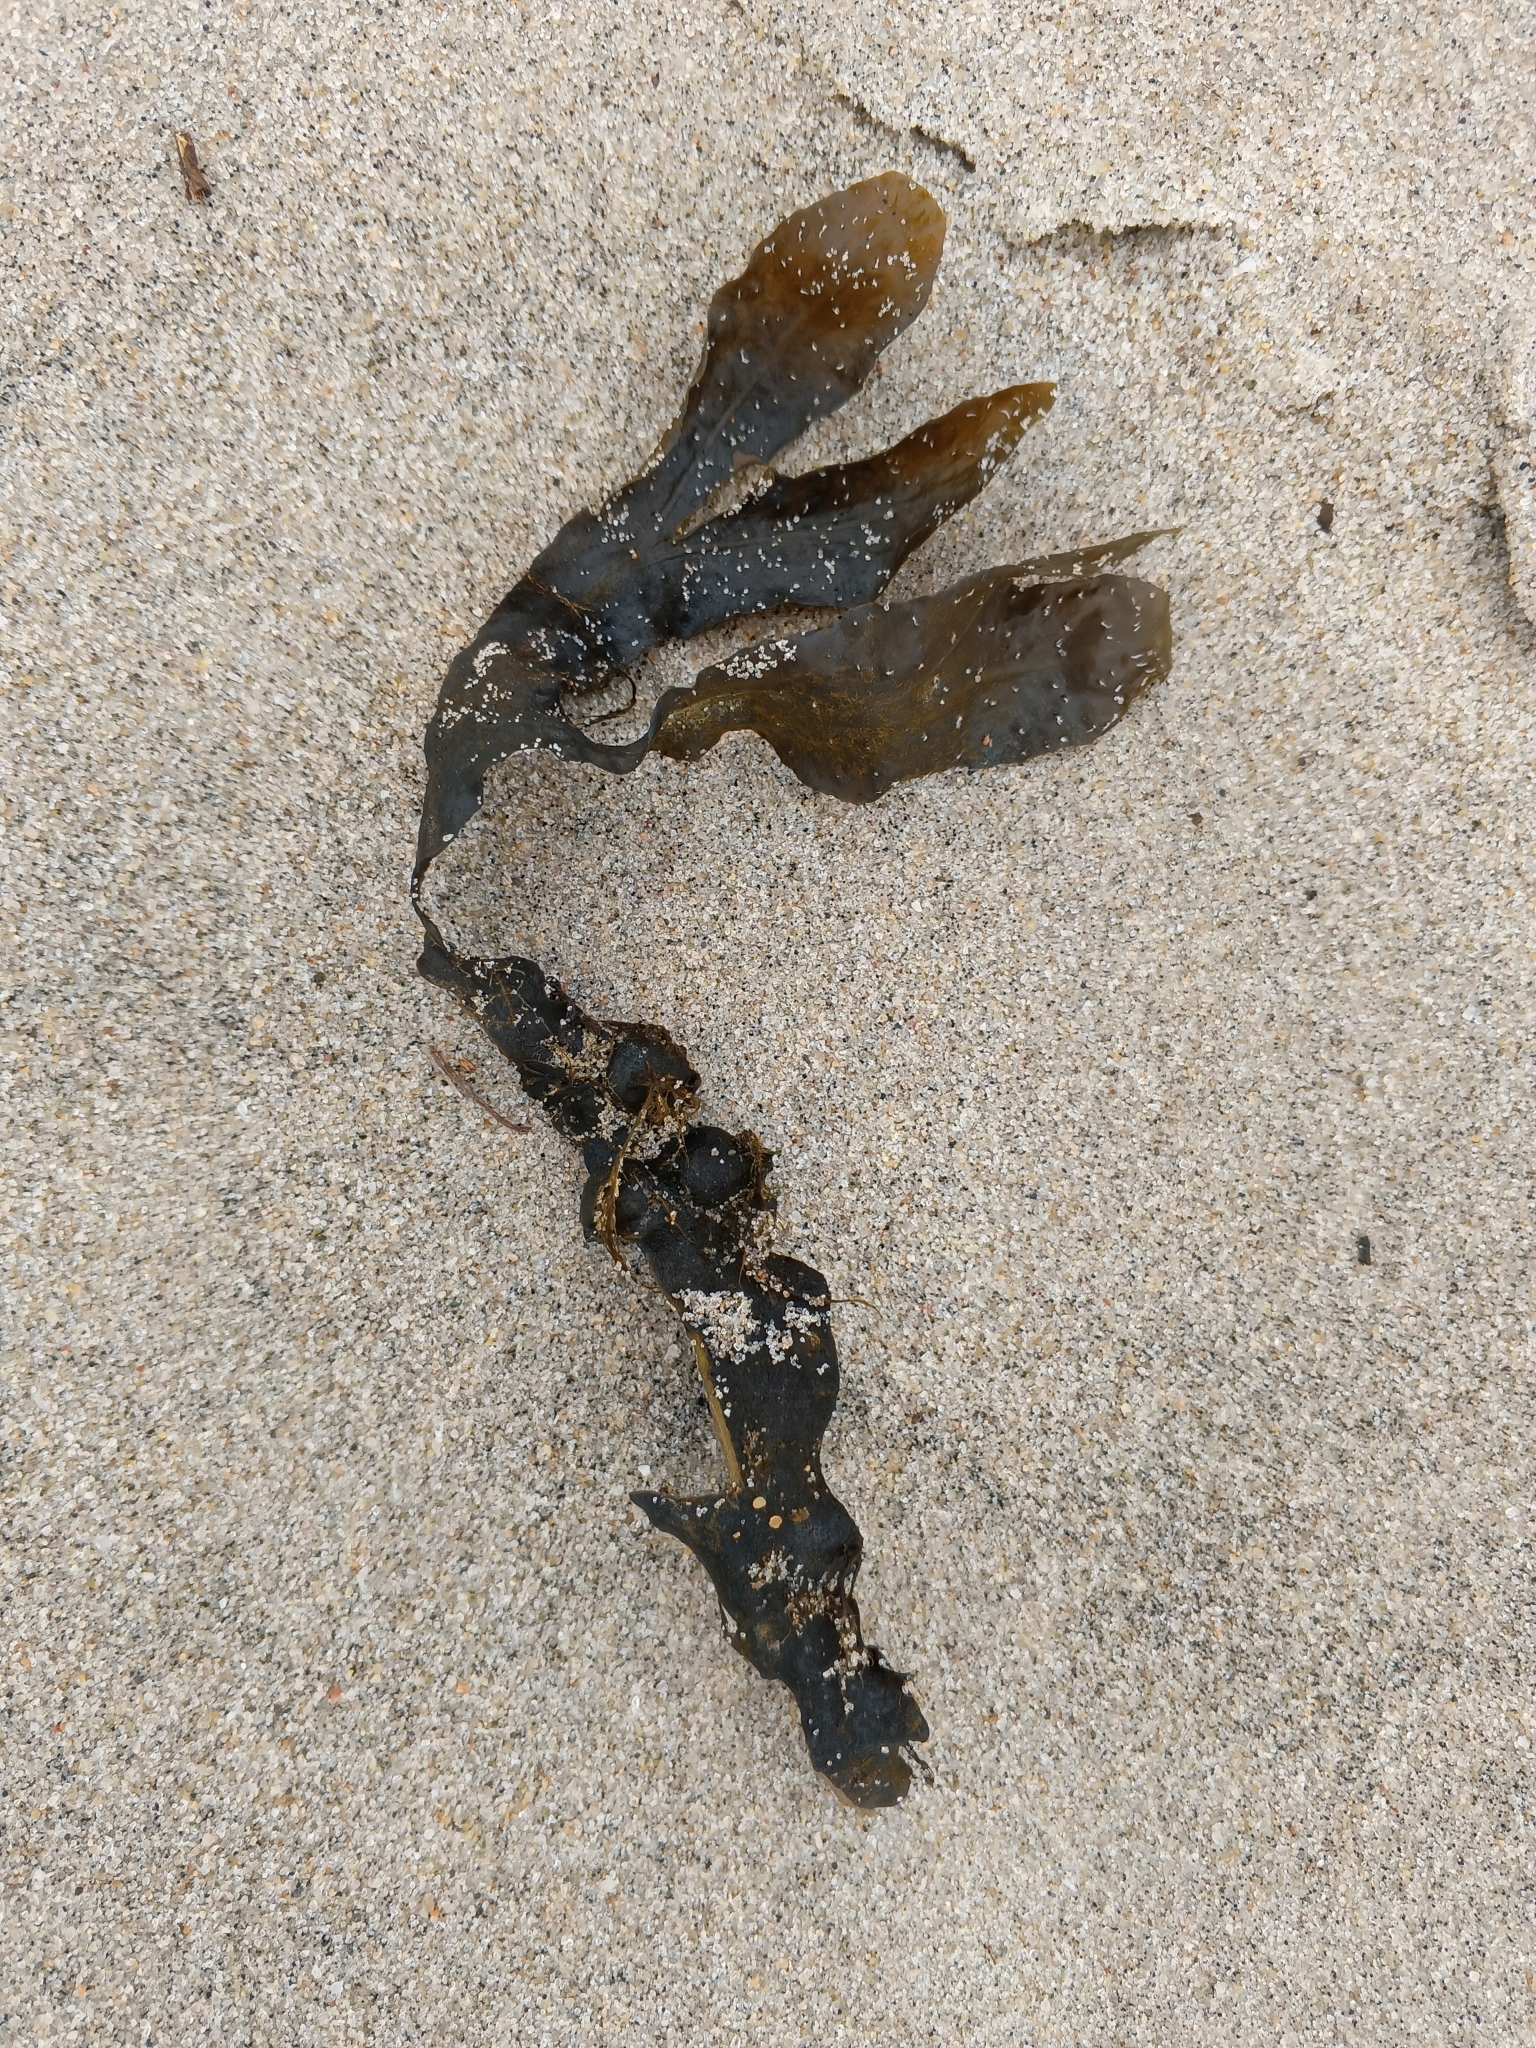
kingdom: Chromista
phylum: Ochrophyta
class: Phaeophyceae
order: Fucales
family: Fucaceae
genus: Fucus
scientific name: Fucus vesiculosus
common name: Bladder wrack
